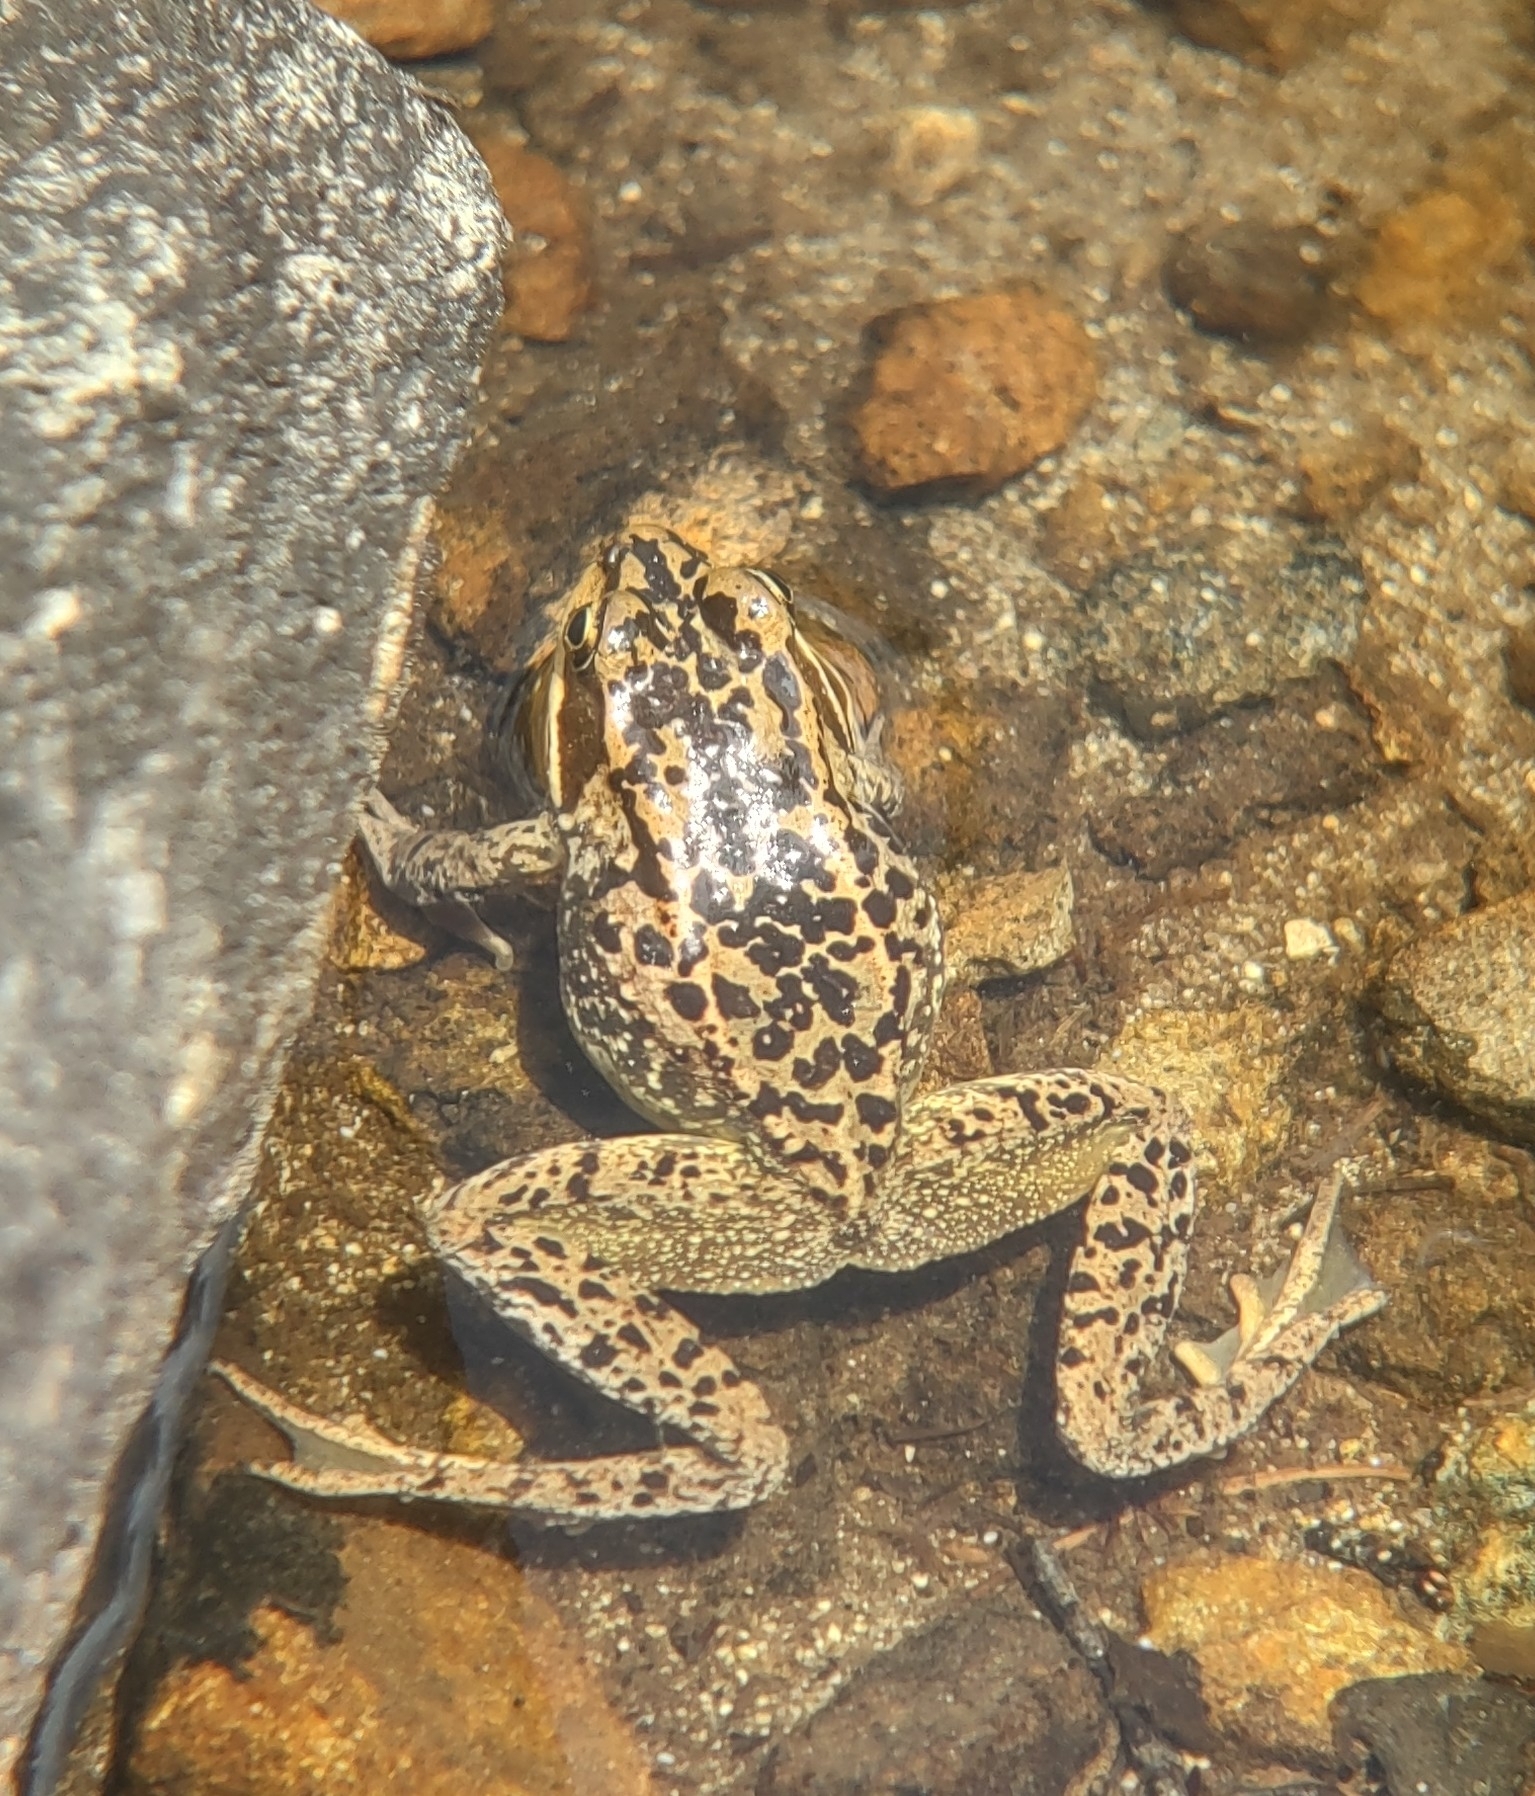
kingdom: Animalia
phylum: Chordata
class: Amphibia
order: Anura
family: Ranidae
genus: Rana
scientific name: Rana cascadae
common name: Cascades frog
